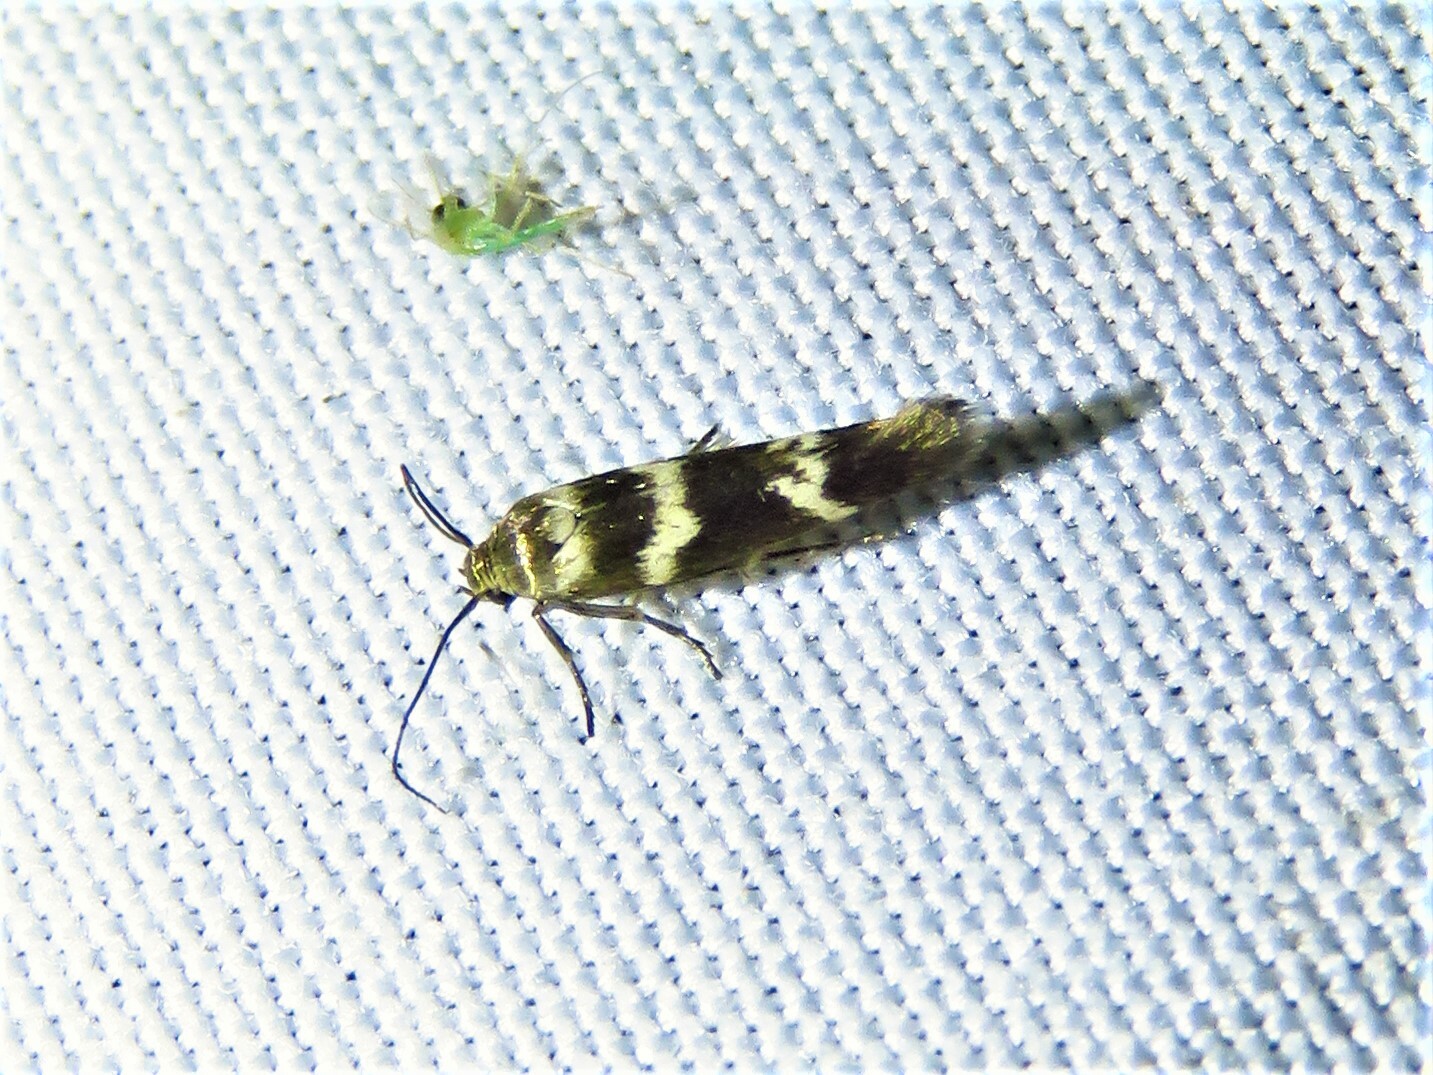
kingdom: Animalia
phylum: Arthropoda
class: Insecta
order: Lepidoptera
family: Scythrididae
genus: Scythris
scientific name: Scythris trivinctella
